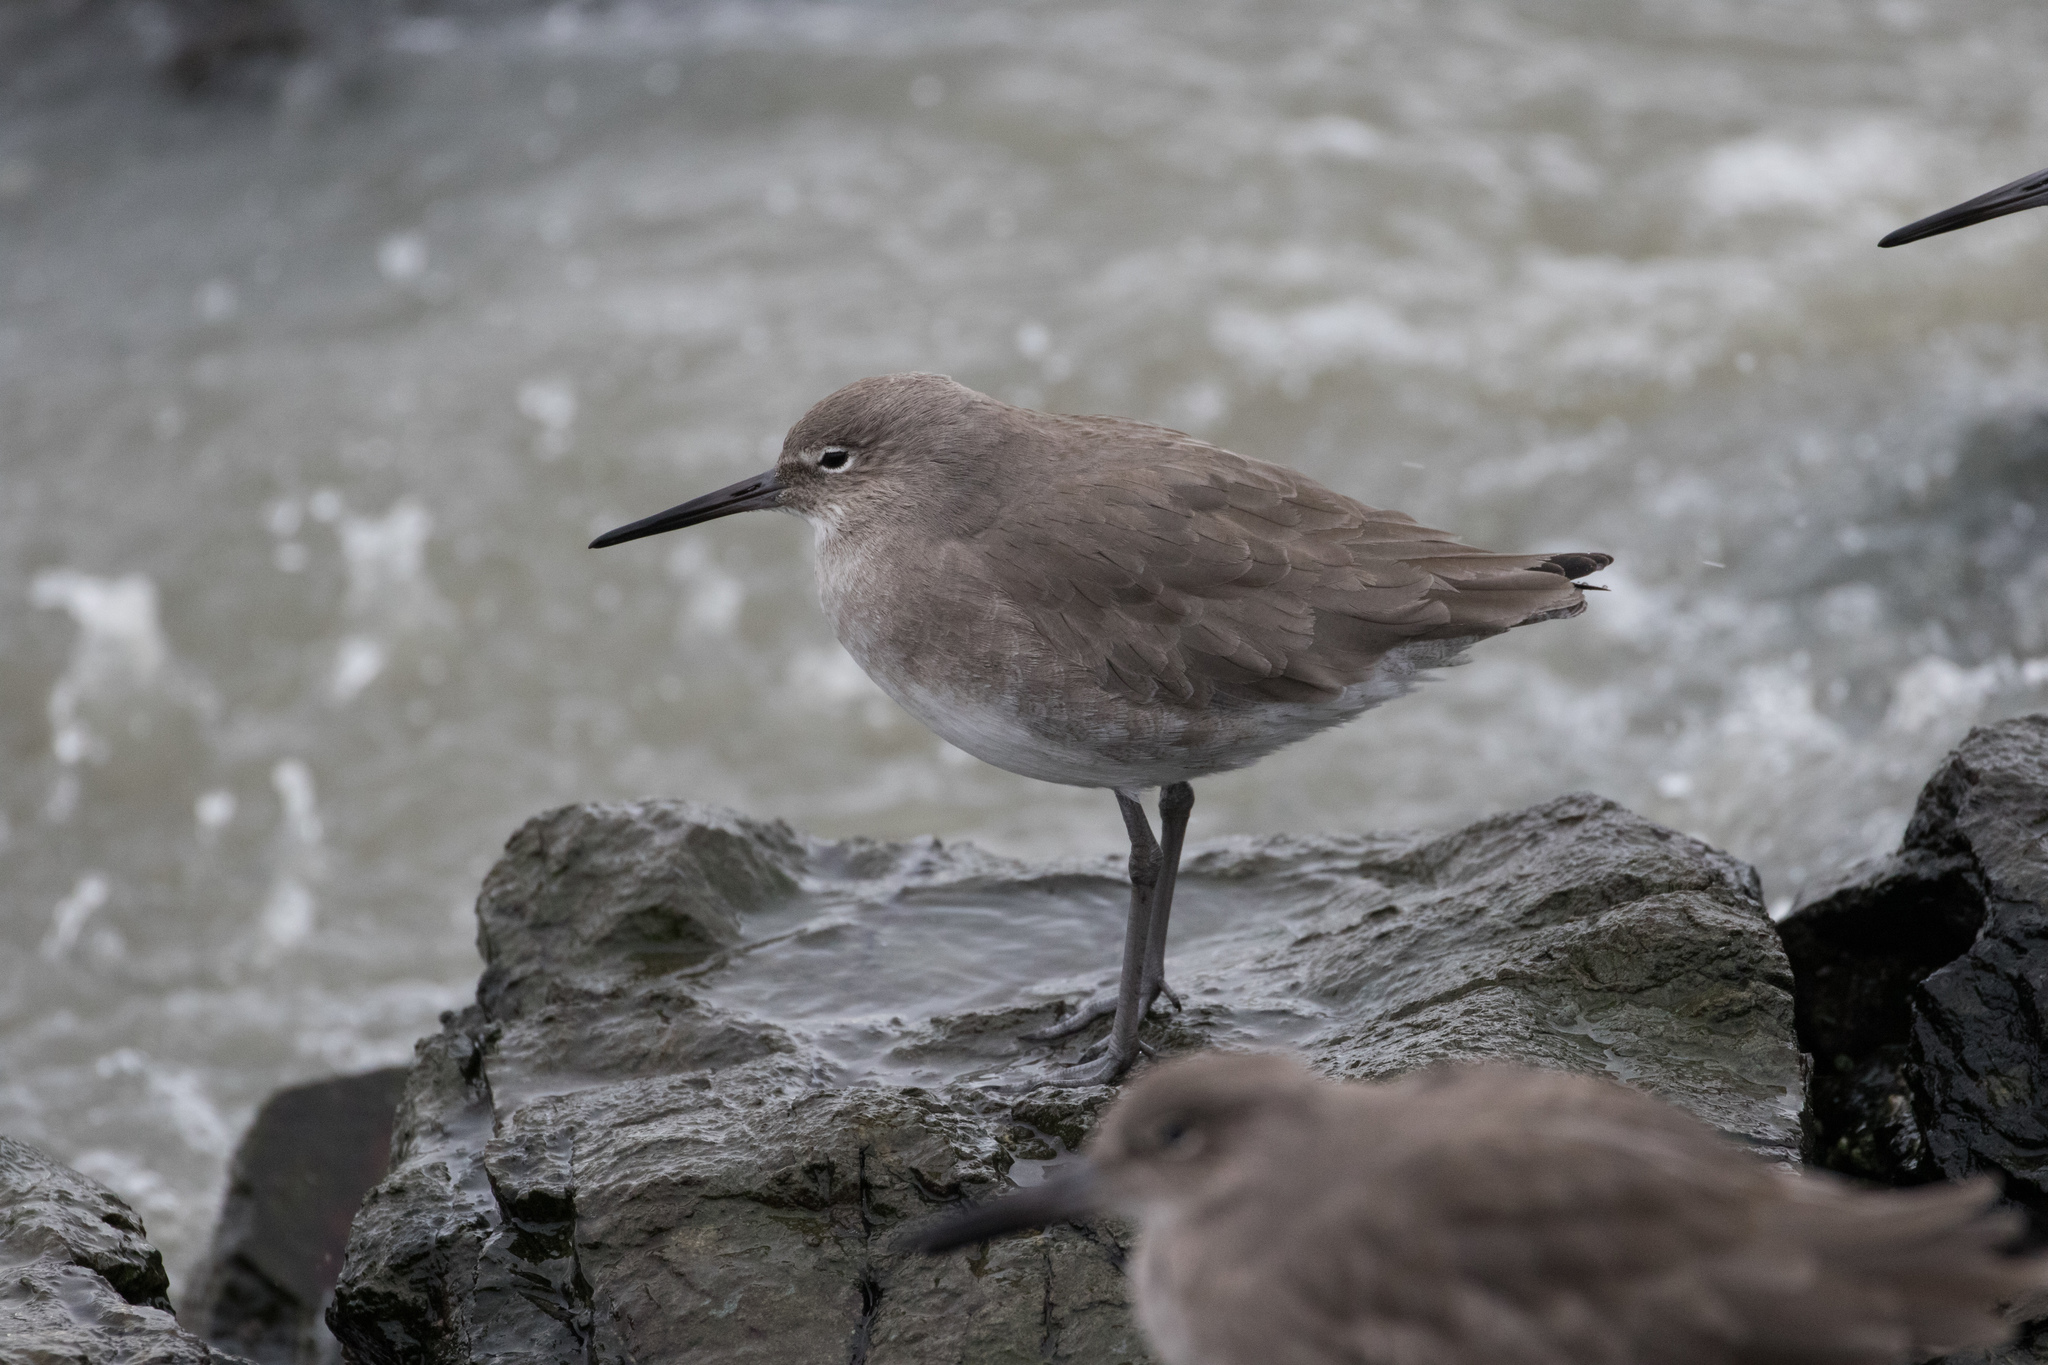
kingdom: Animalia
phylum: Chordata
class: Aves
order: Charadriiformes
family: Scolopacidae
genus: Tringa
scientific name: Tringa semipalmata
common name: Willet
